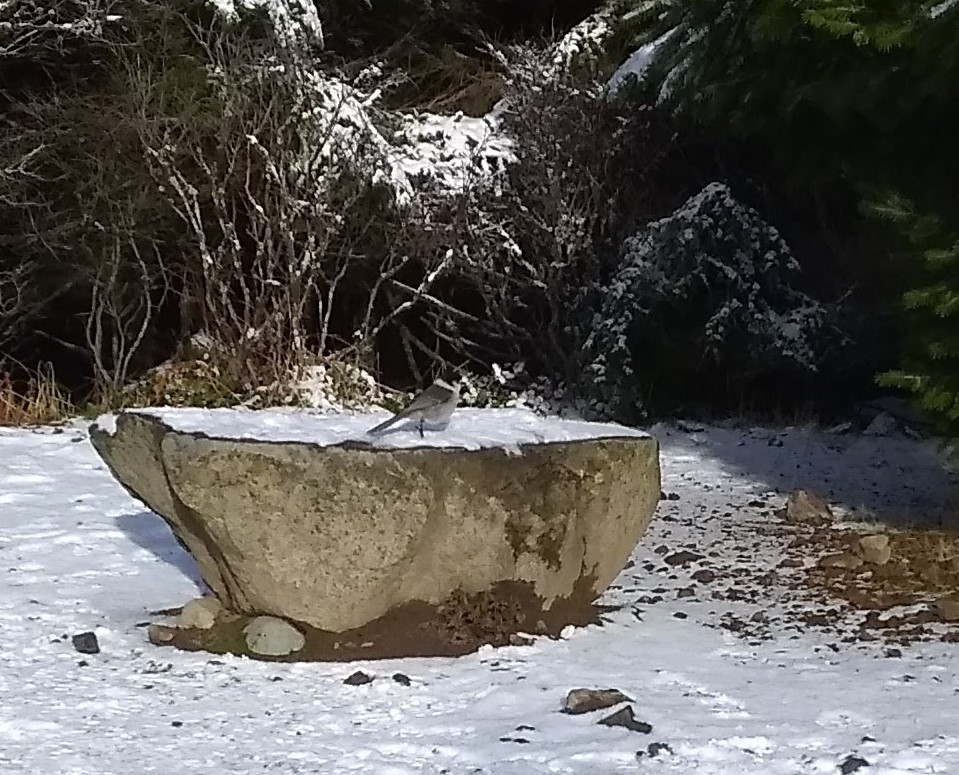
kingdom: Animalia
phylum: Chordata
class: Aves
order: Passeriformes
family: Corvidae
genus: Perisoreus
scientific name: Perisoreus canadensis
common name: Gray jay
